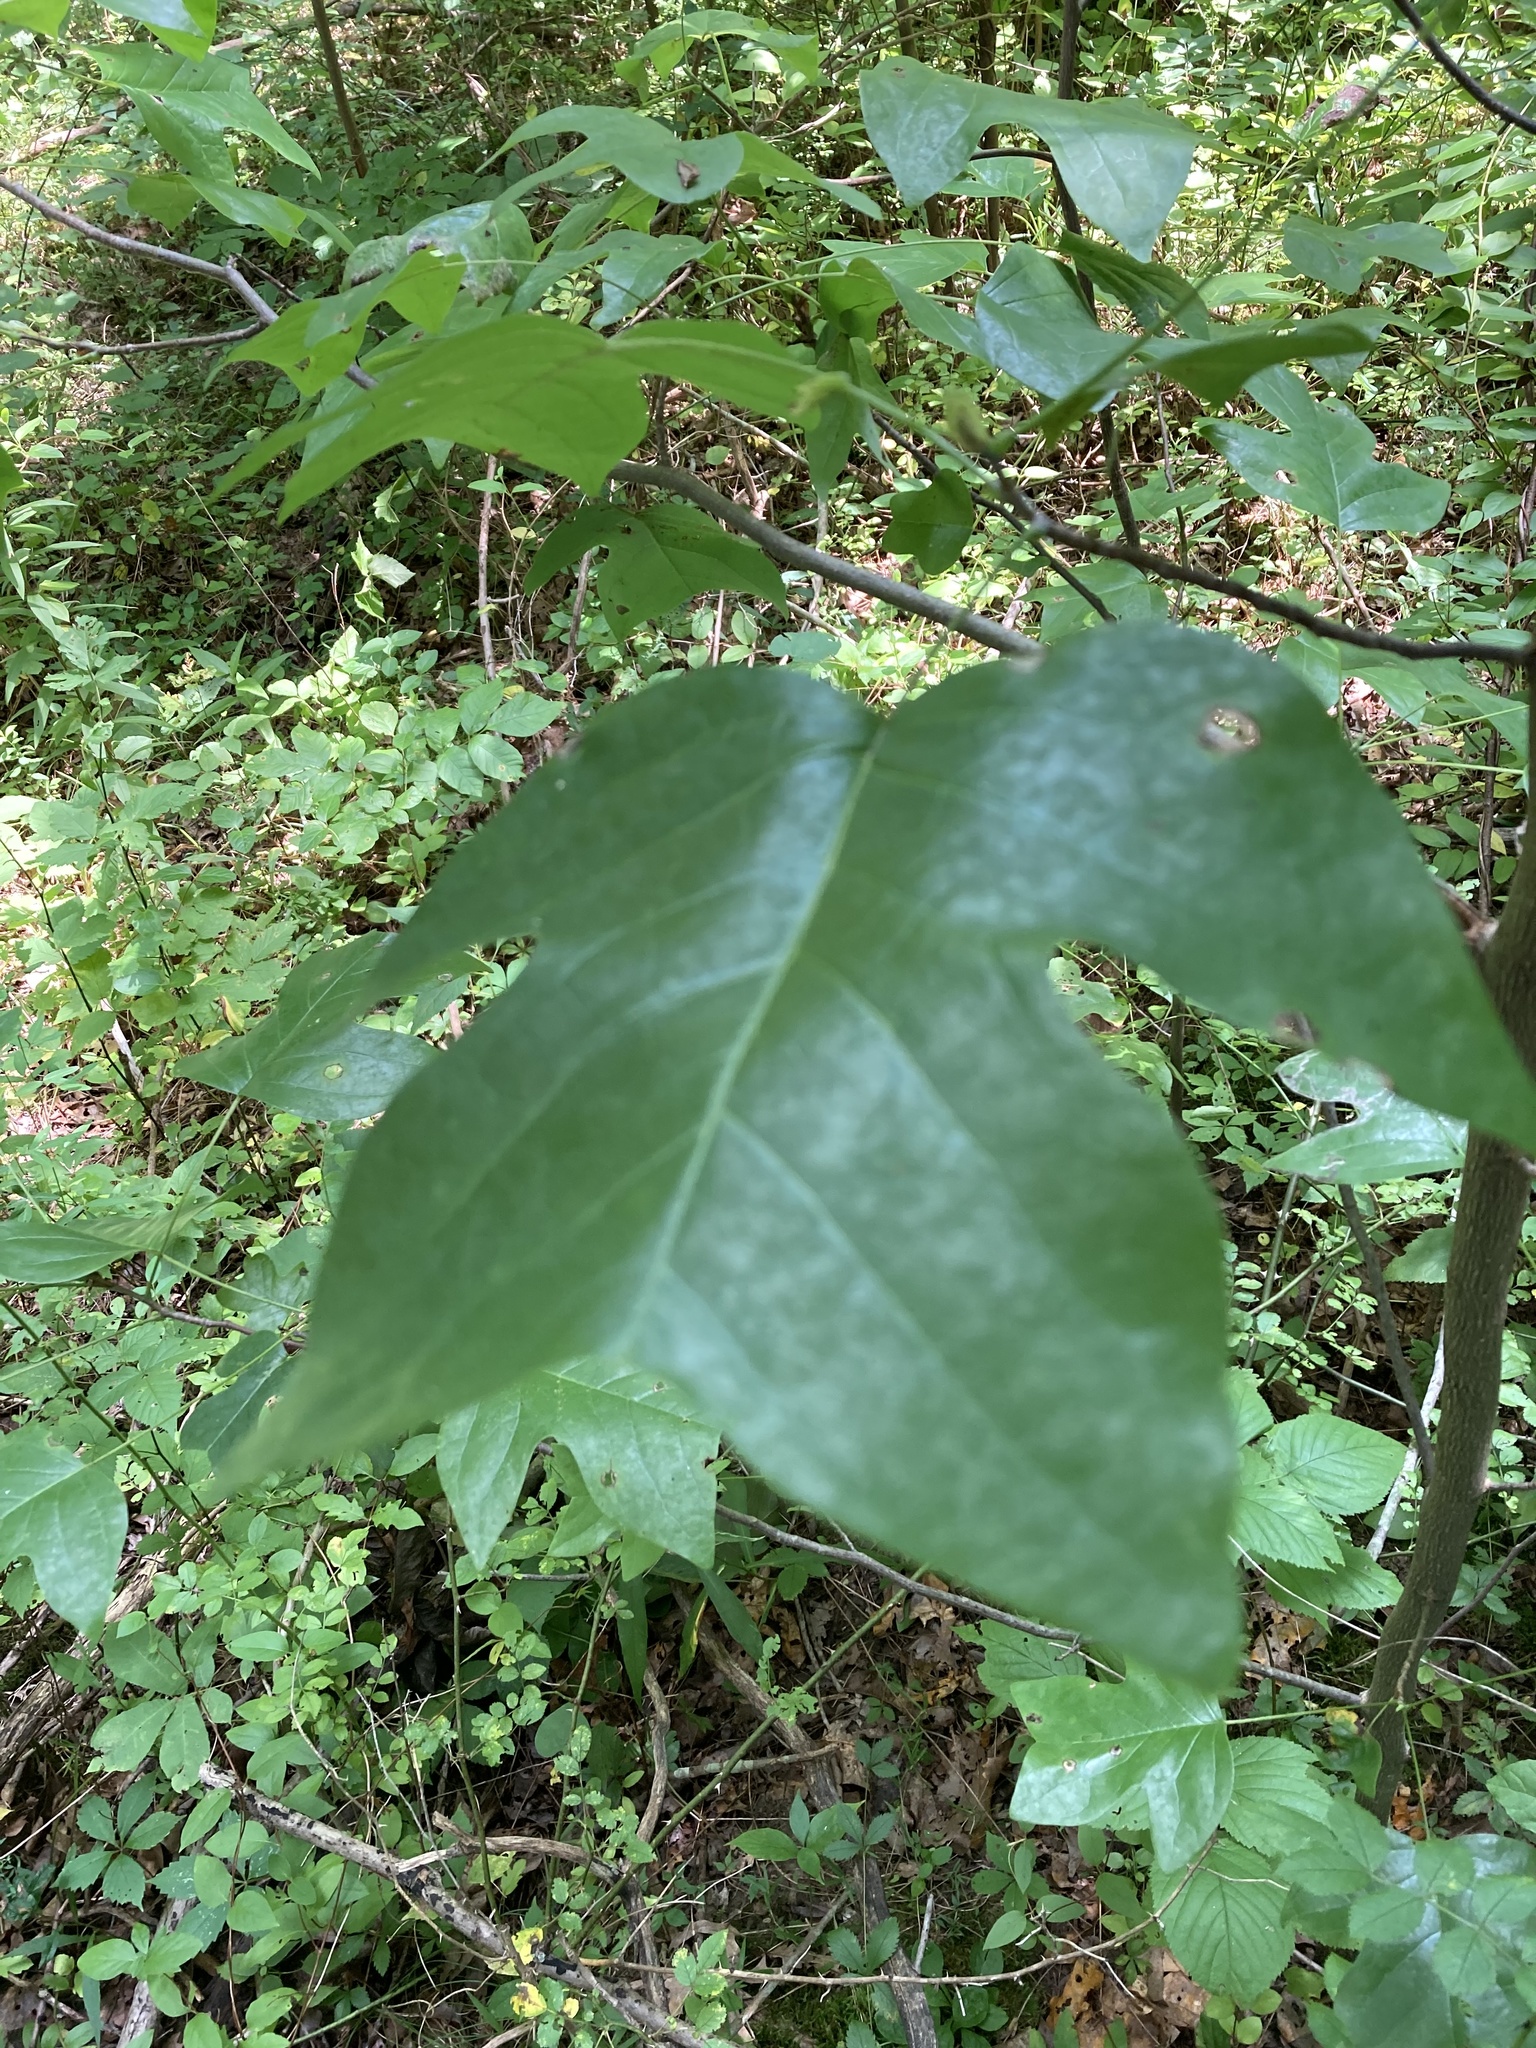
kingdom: Plantae
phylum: Tracheophyta
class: Magnoliopsida
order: Magnoliales
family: Magnoliaceae
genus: Liriodendron
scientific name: Liriodendron tulipifera
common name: Tulip tree
